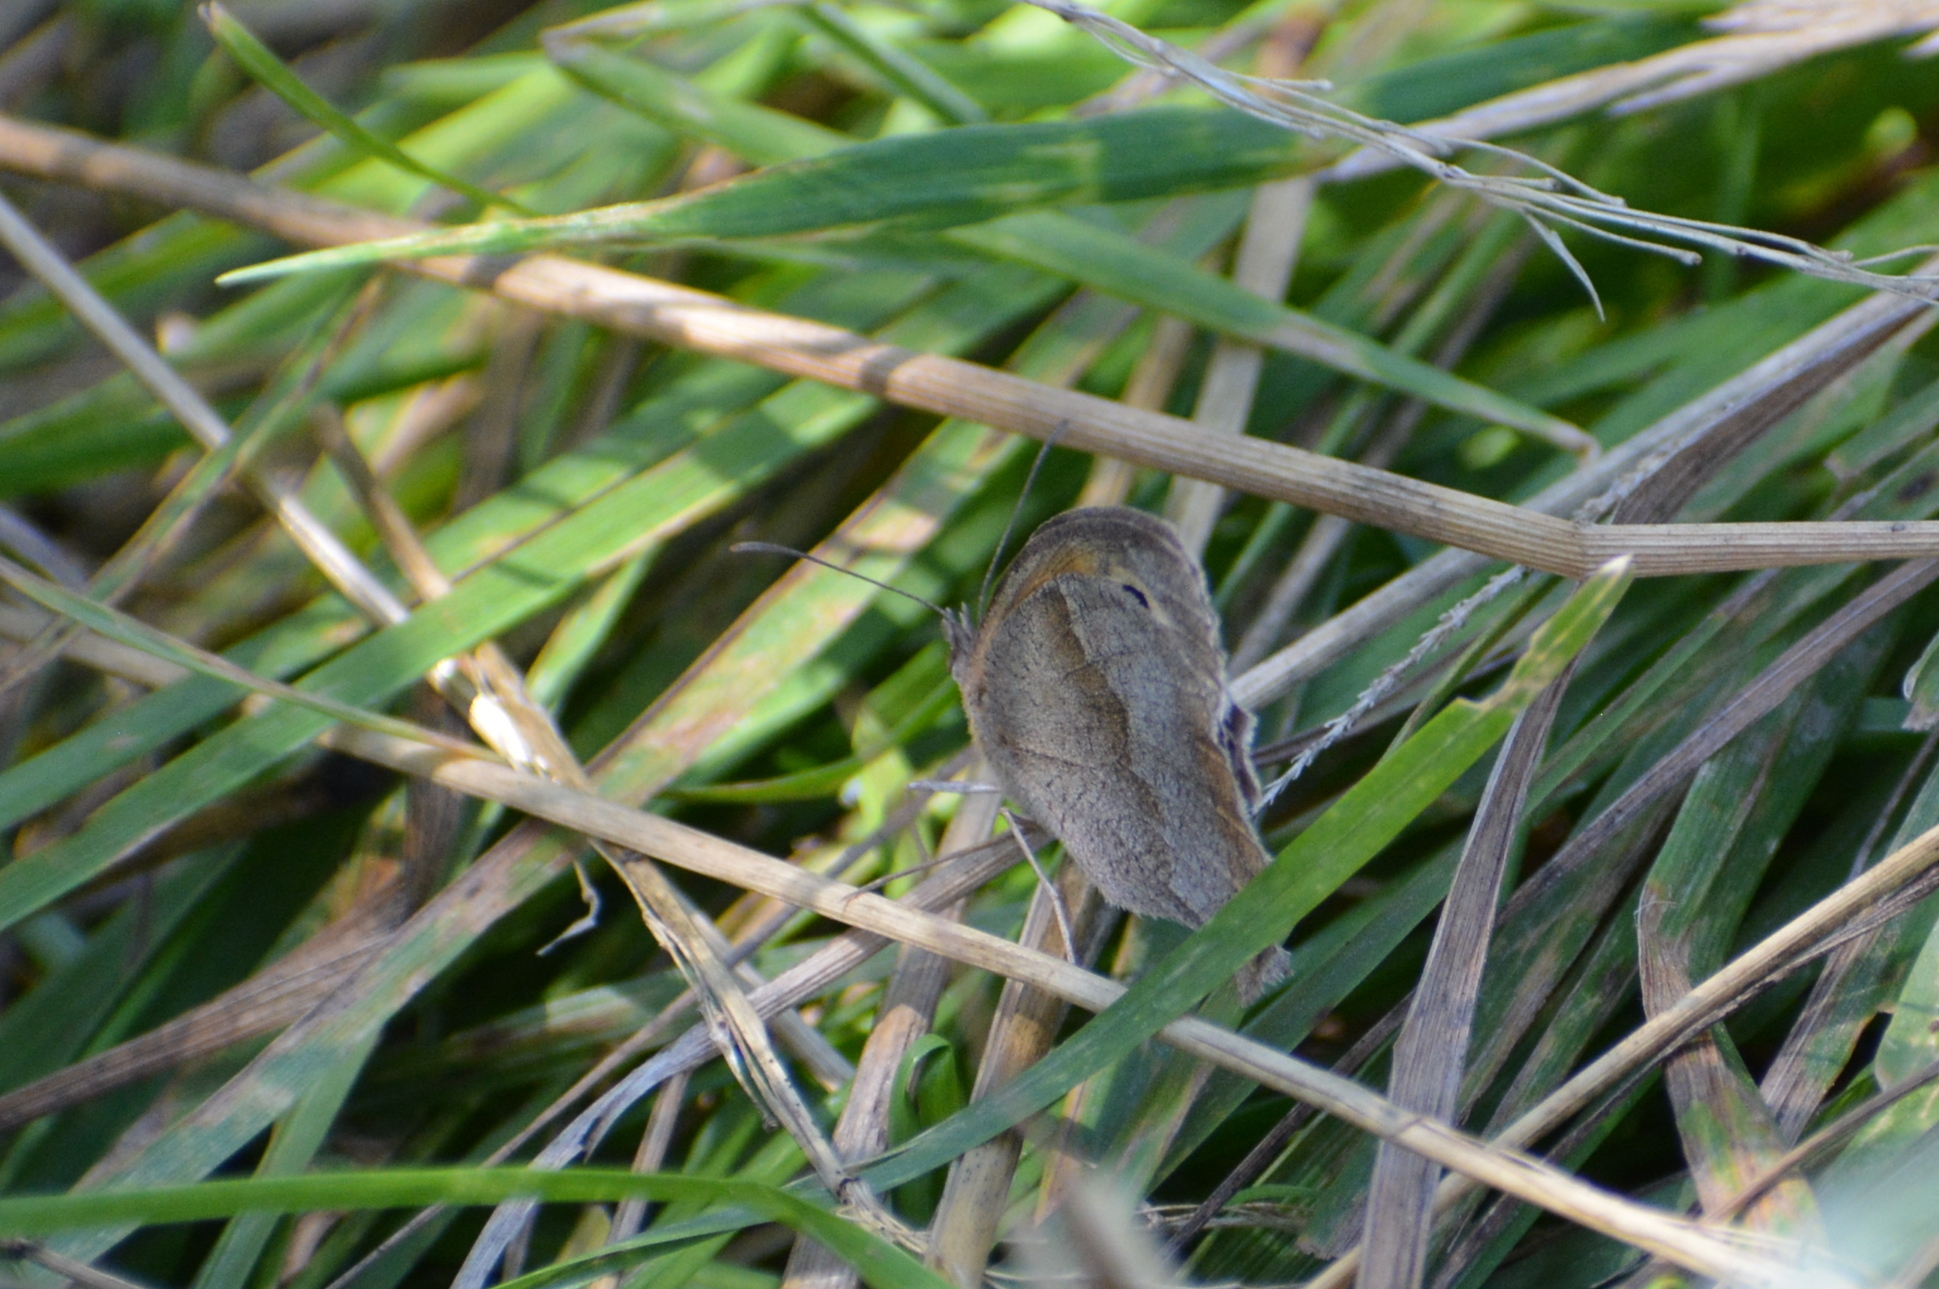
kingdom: Animalia
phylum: Arthropoda
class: Insecta
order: Lepidoptera
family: Nymphalidae
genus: Maniola
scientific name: Maniola jurtina
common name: Meadow brown
